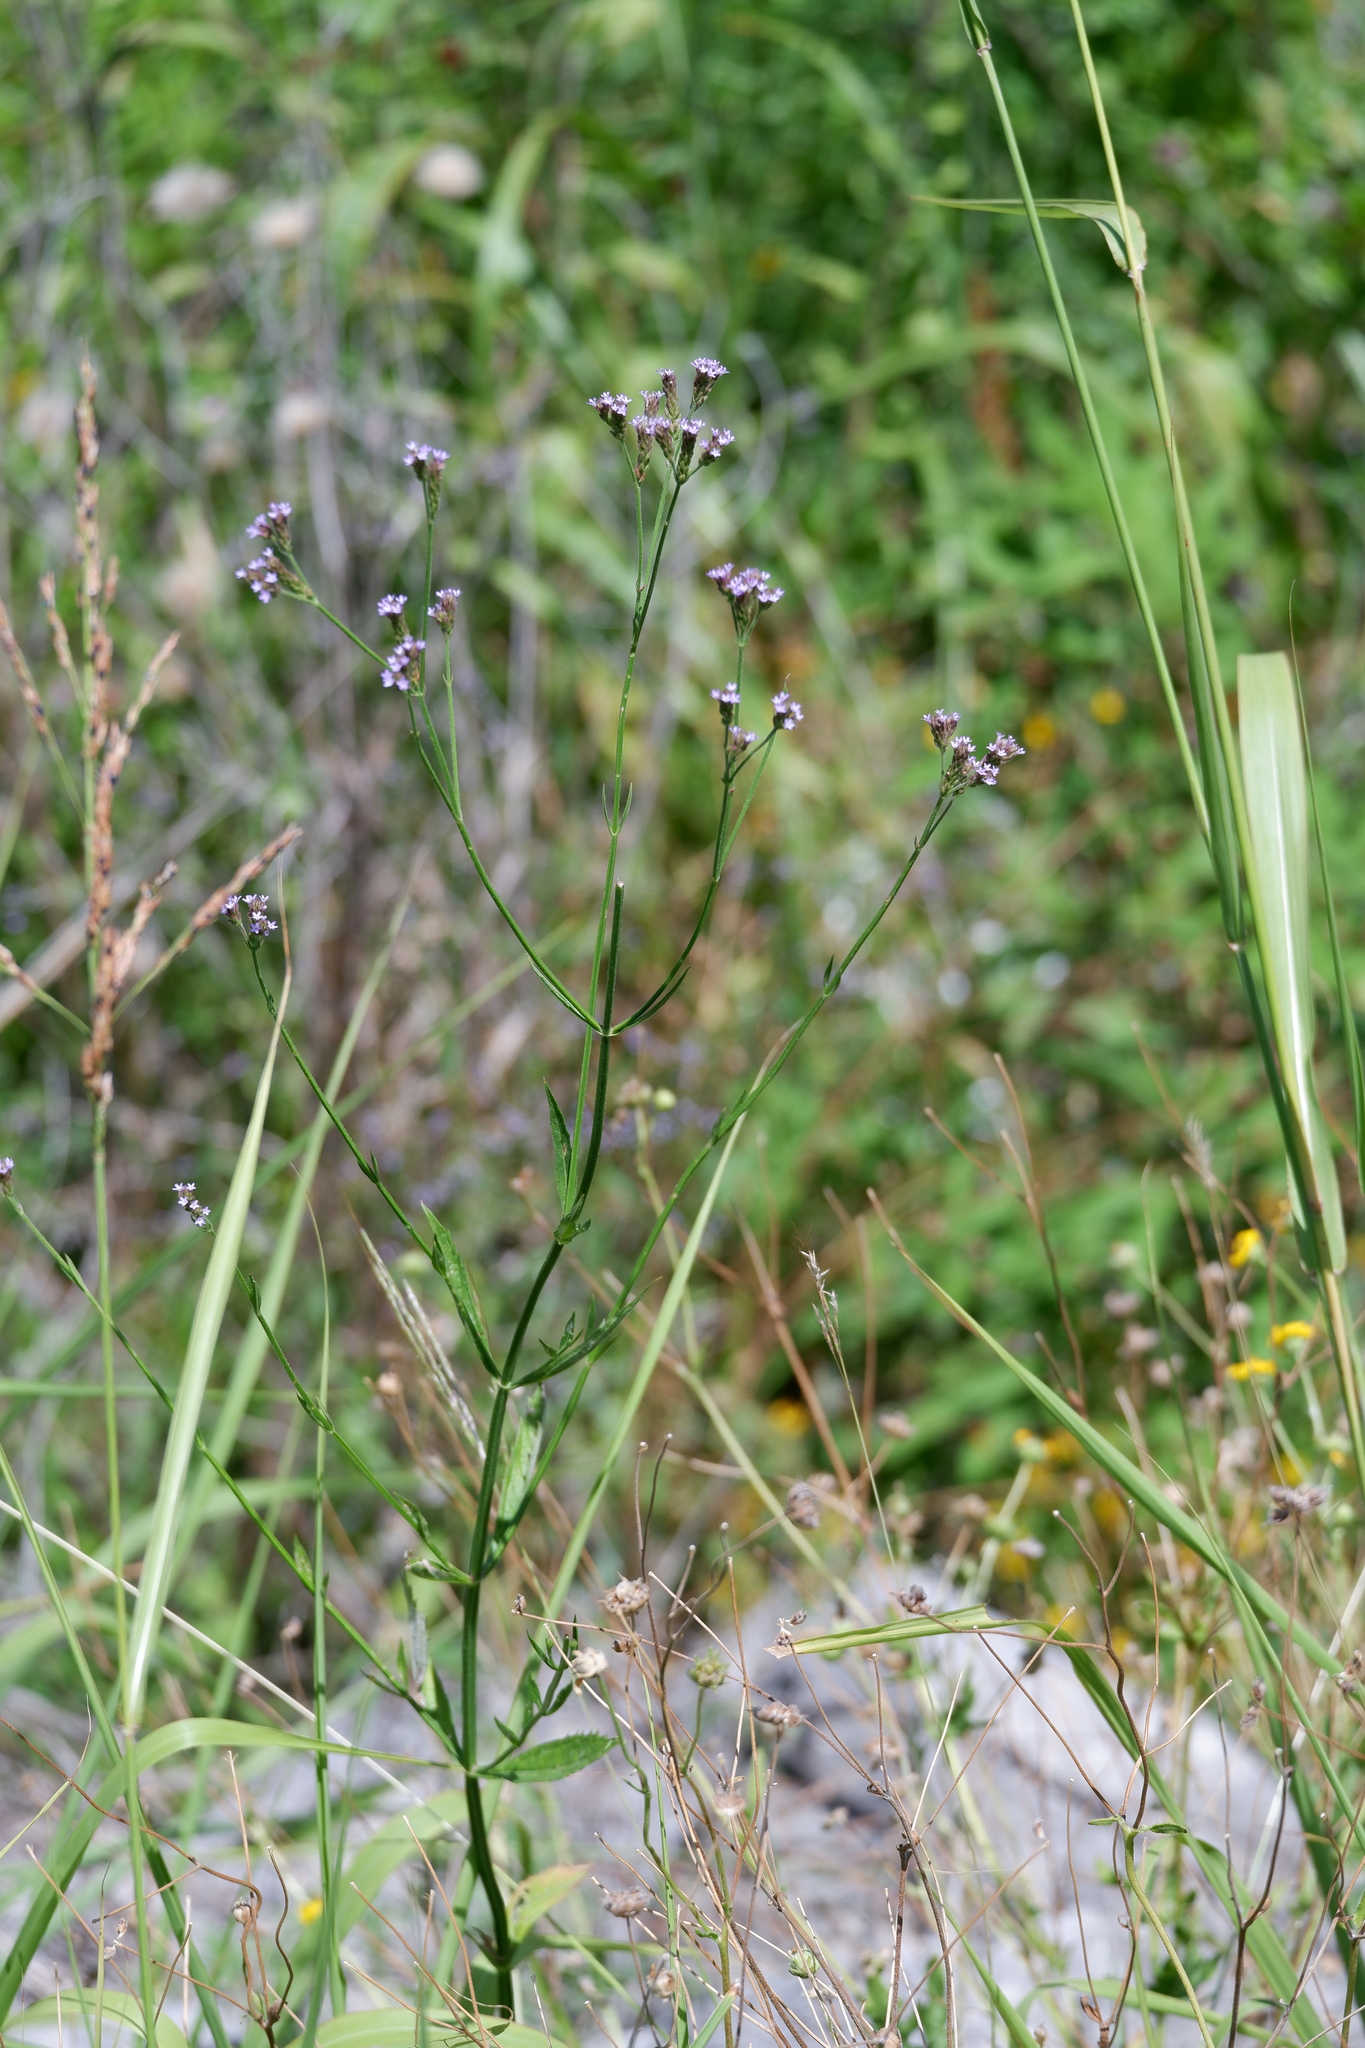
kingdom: Plantae
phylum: Tracheophyta
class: Magnoliopsida
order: Lamiales
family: Verbenaceae
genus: Verbena
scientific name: Verbena brasiliensis
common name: Brazilian vervain
